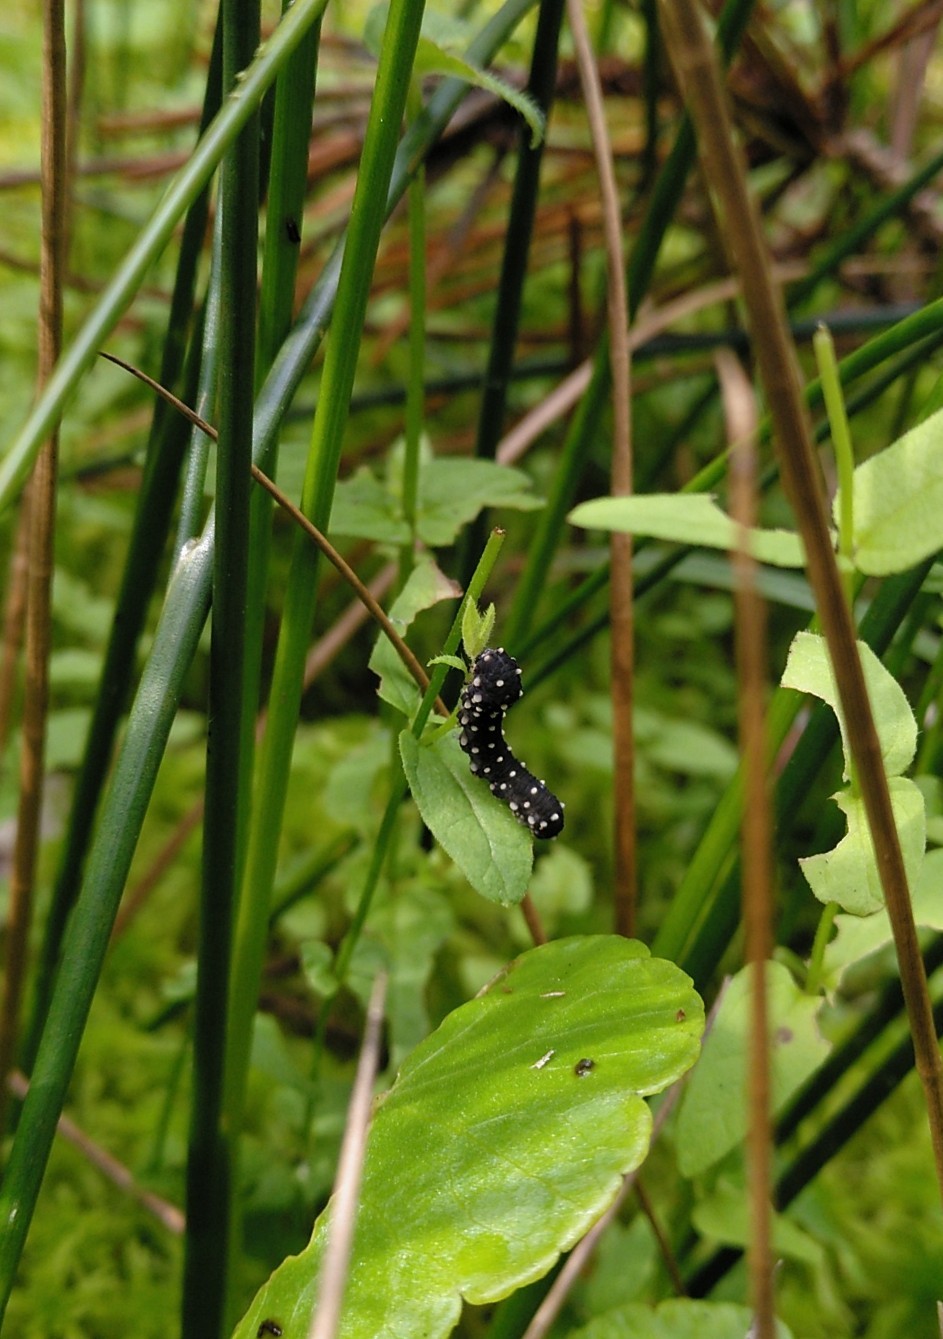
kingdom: Animalia
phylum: Arthropoda
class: Insecta
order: Hymenoptera
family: Tenthredinidae
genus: Athalia
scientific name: Athalia scutellariae
